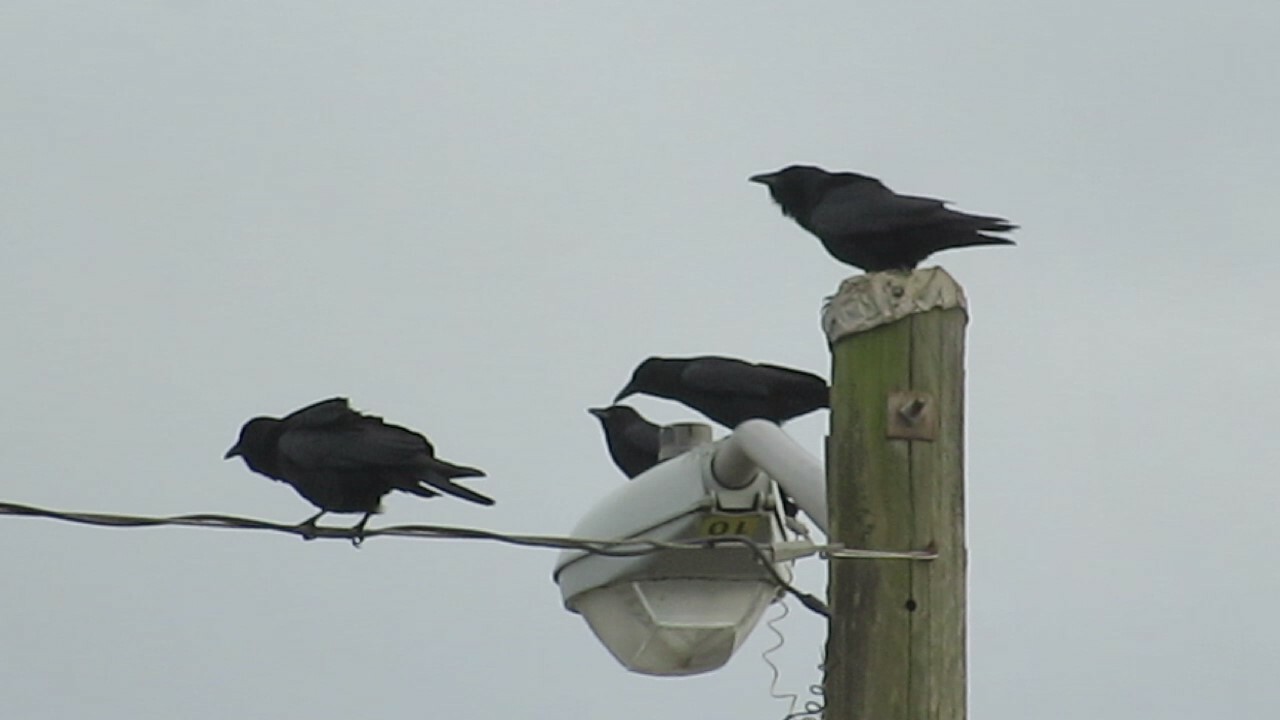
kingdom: Animalia
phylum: Chordata
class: Aves
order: Passeriformes
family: Corvidae
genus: Corvus
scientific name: Corvus ossifragus
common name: Fish crow
